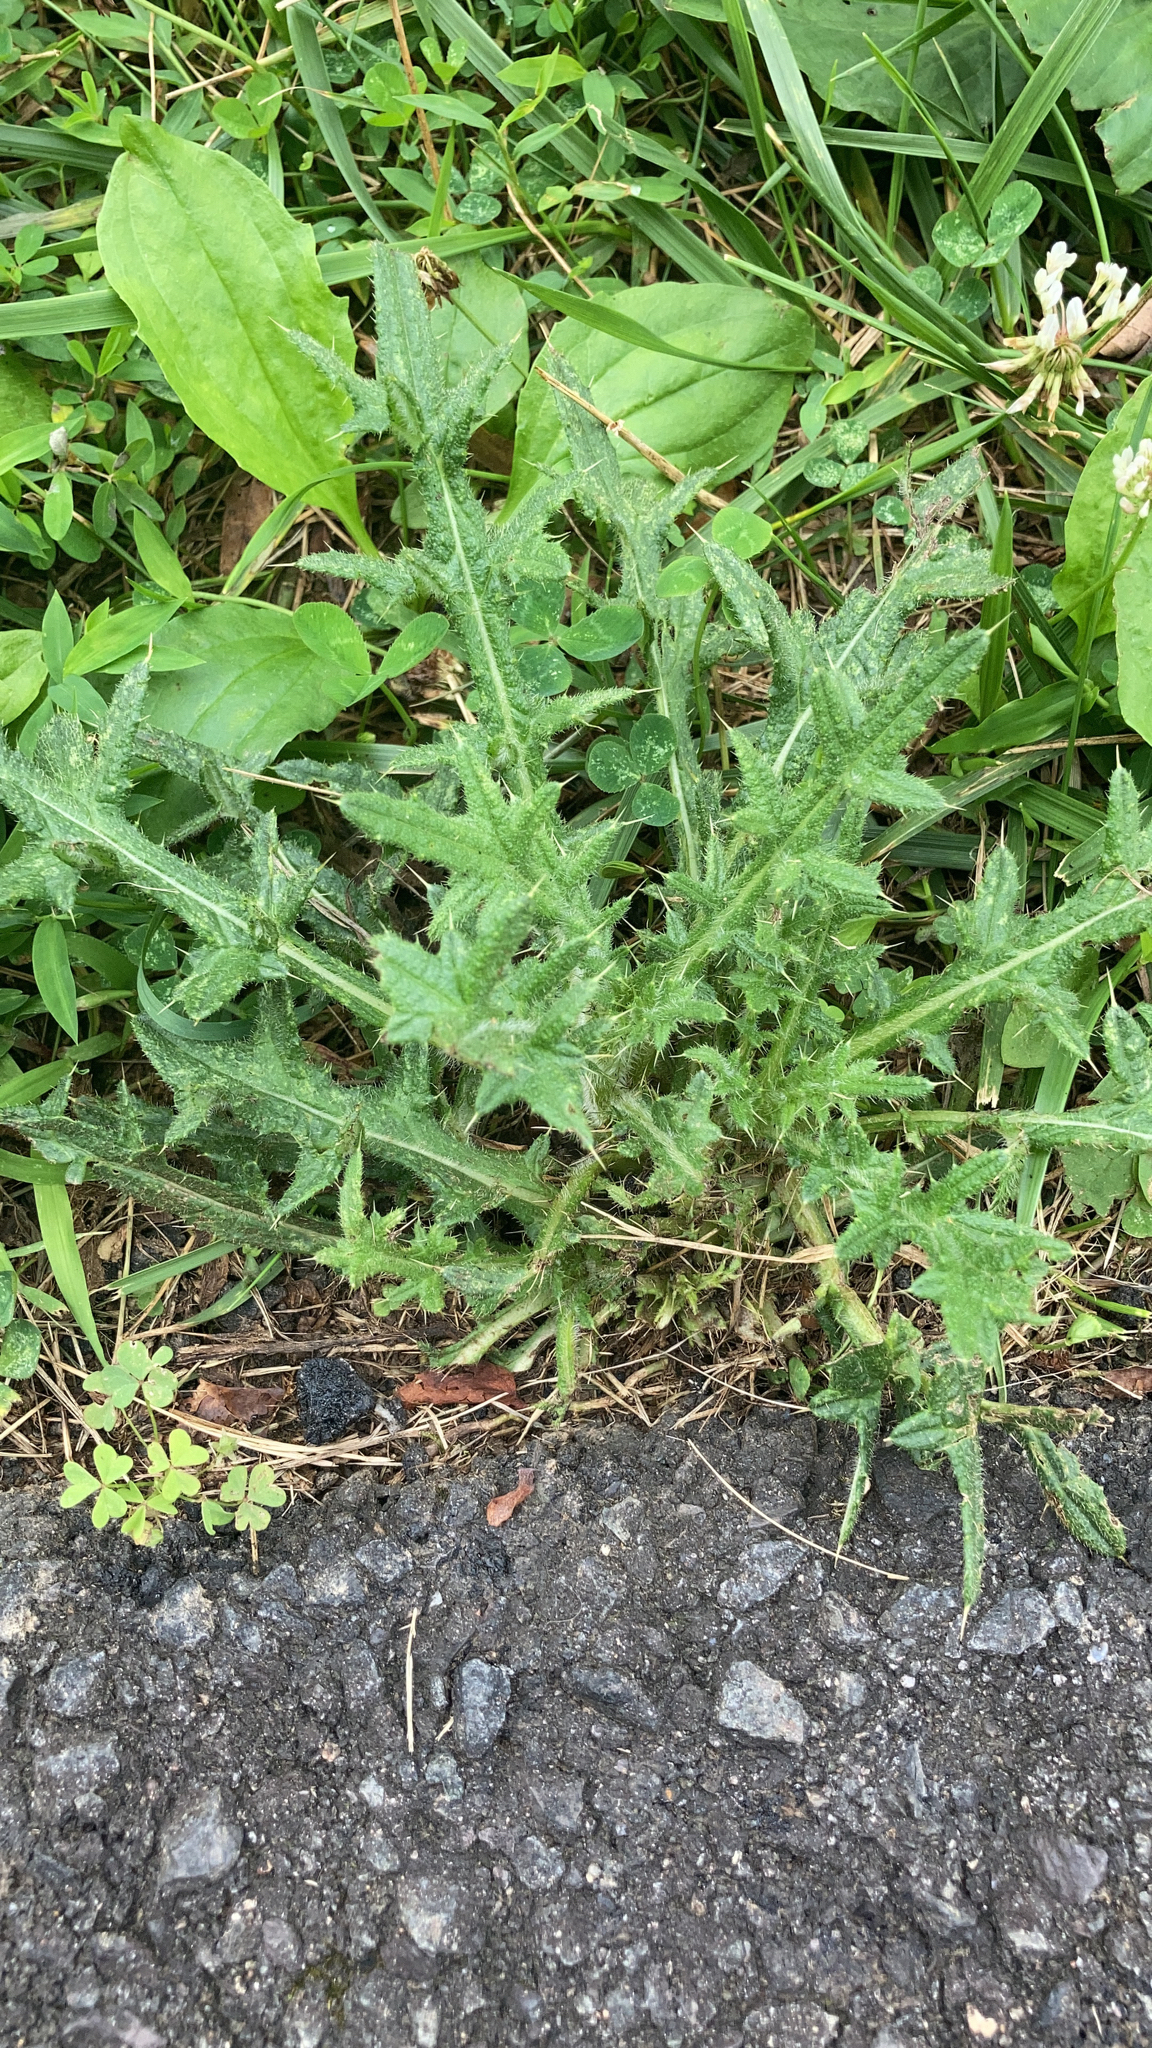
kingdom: Plantae
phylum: Tracheophyta
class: Magnoliopsida
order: Asterales
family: Asteraceae
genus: Cirsium
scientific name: Cirsium vulgare
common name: Bull thistle
